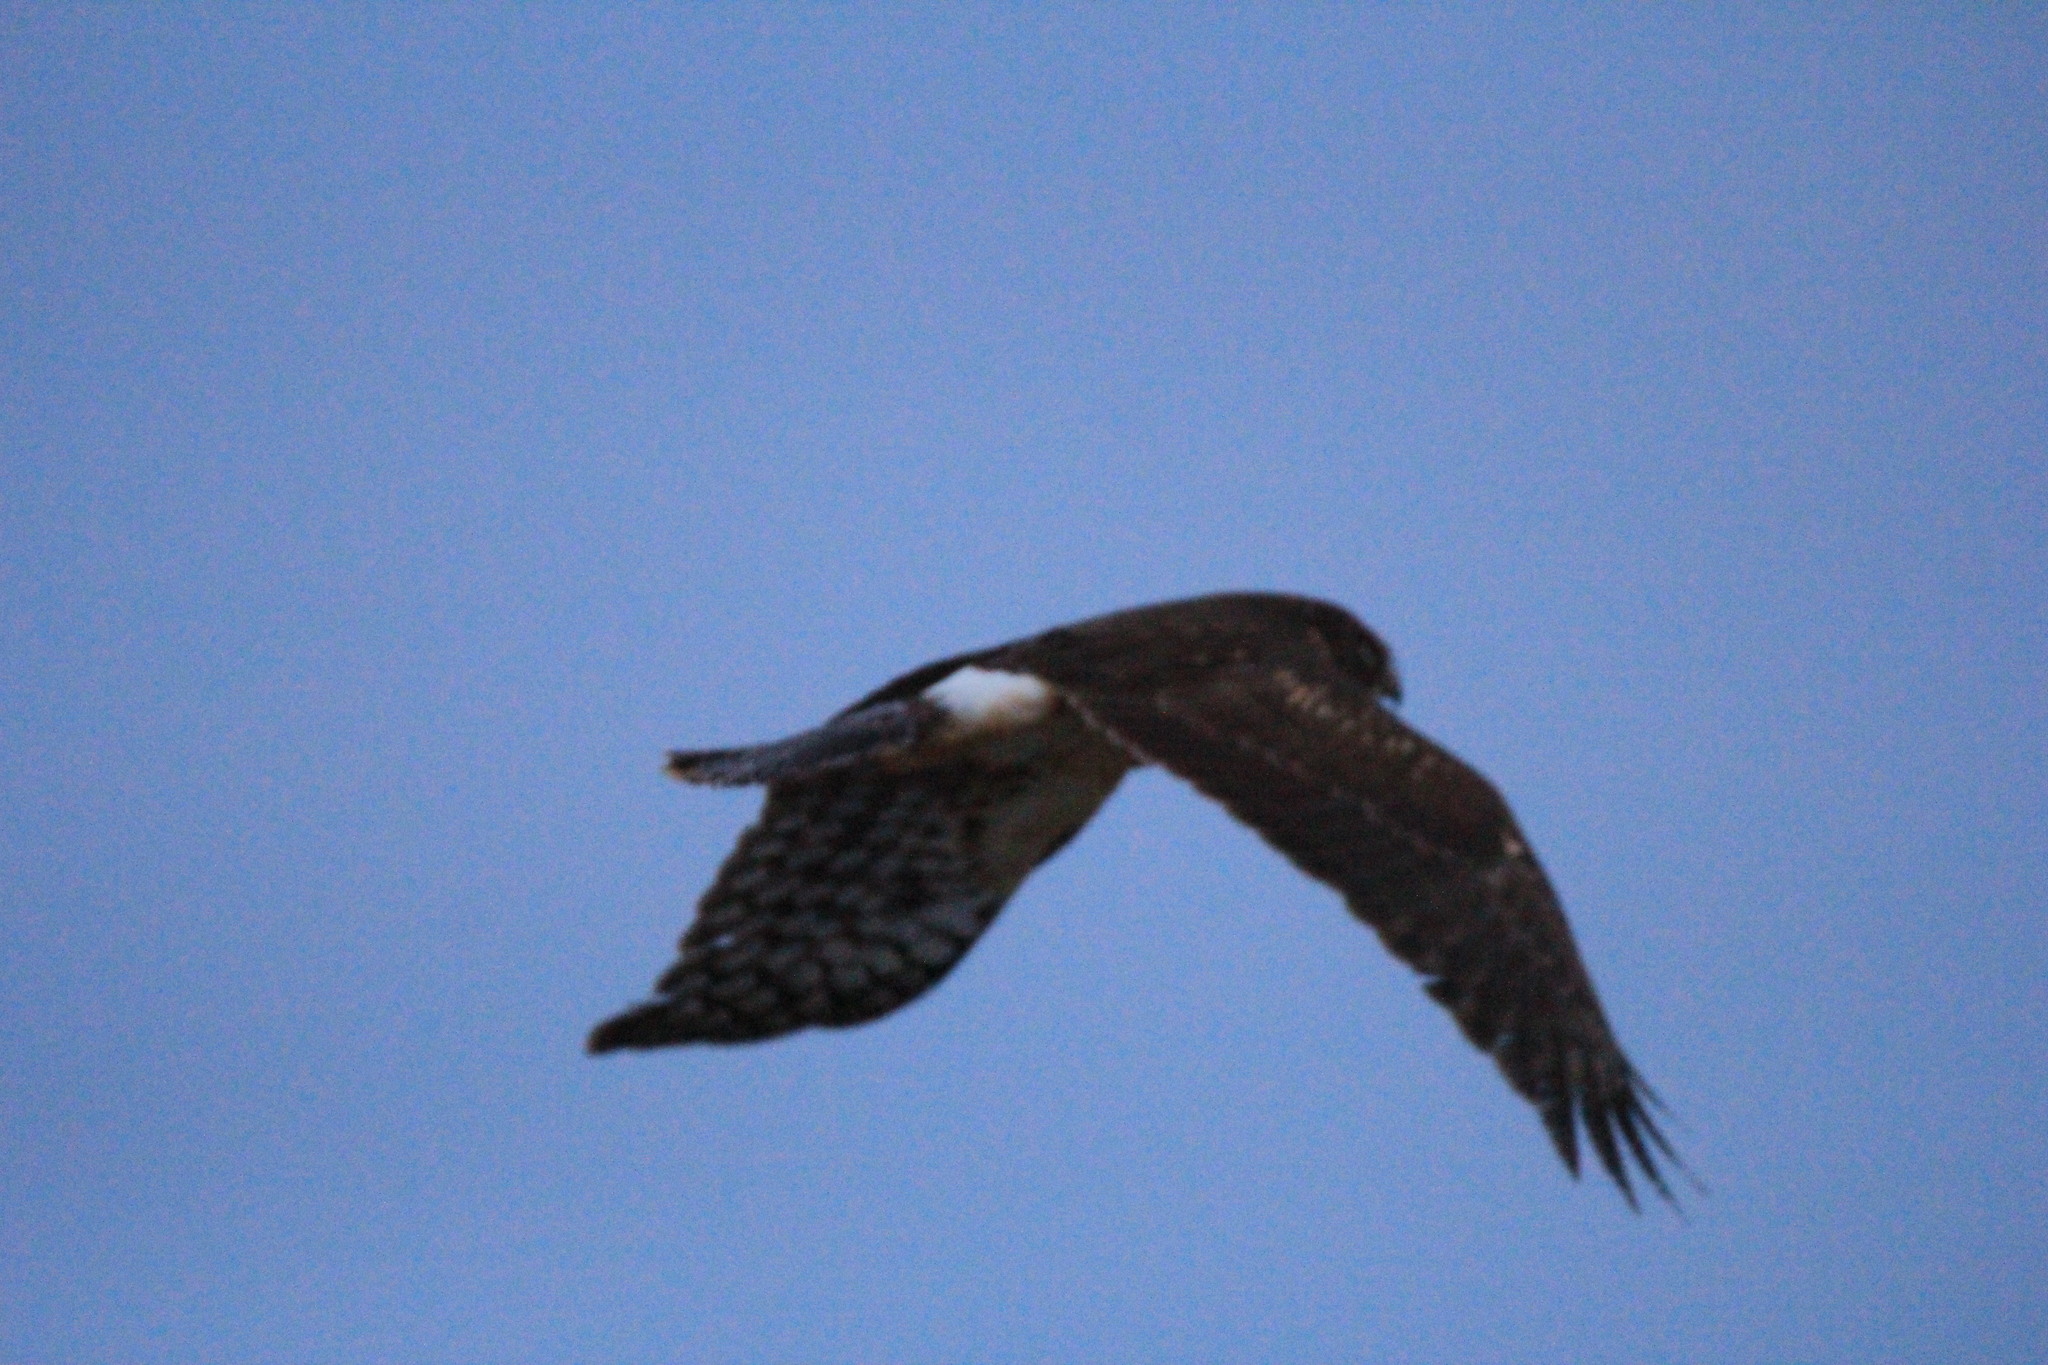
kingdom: Animalia
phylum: Chordata
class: Aves
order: Accipitriformes
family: Accipitridae
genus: Circus
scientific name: Circus cyaneus
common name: Hen harrier
